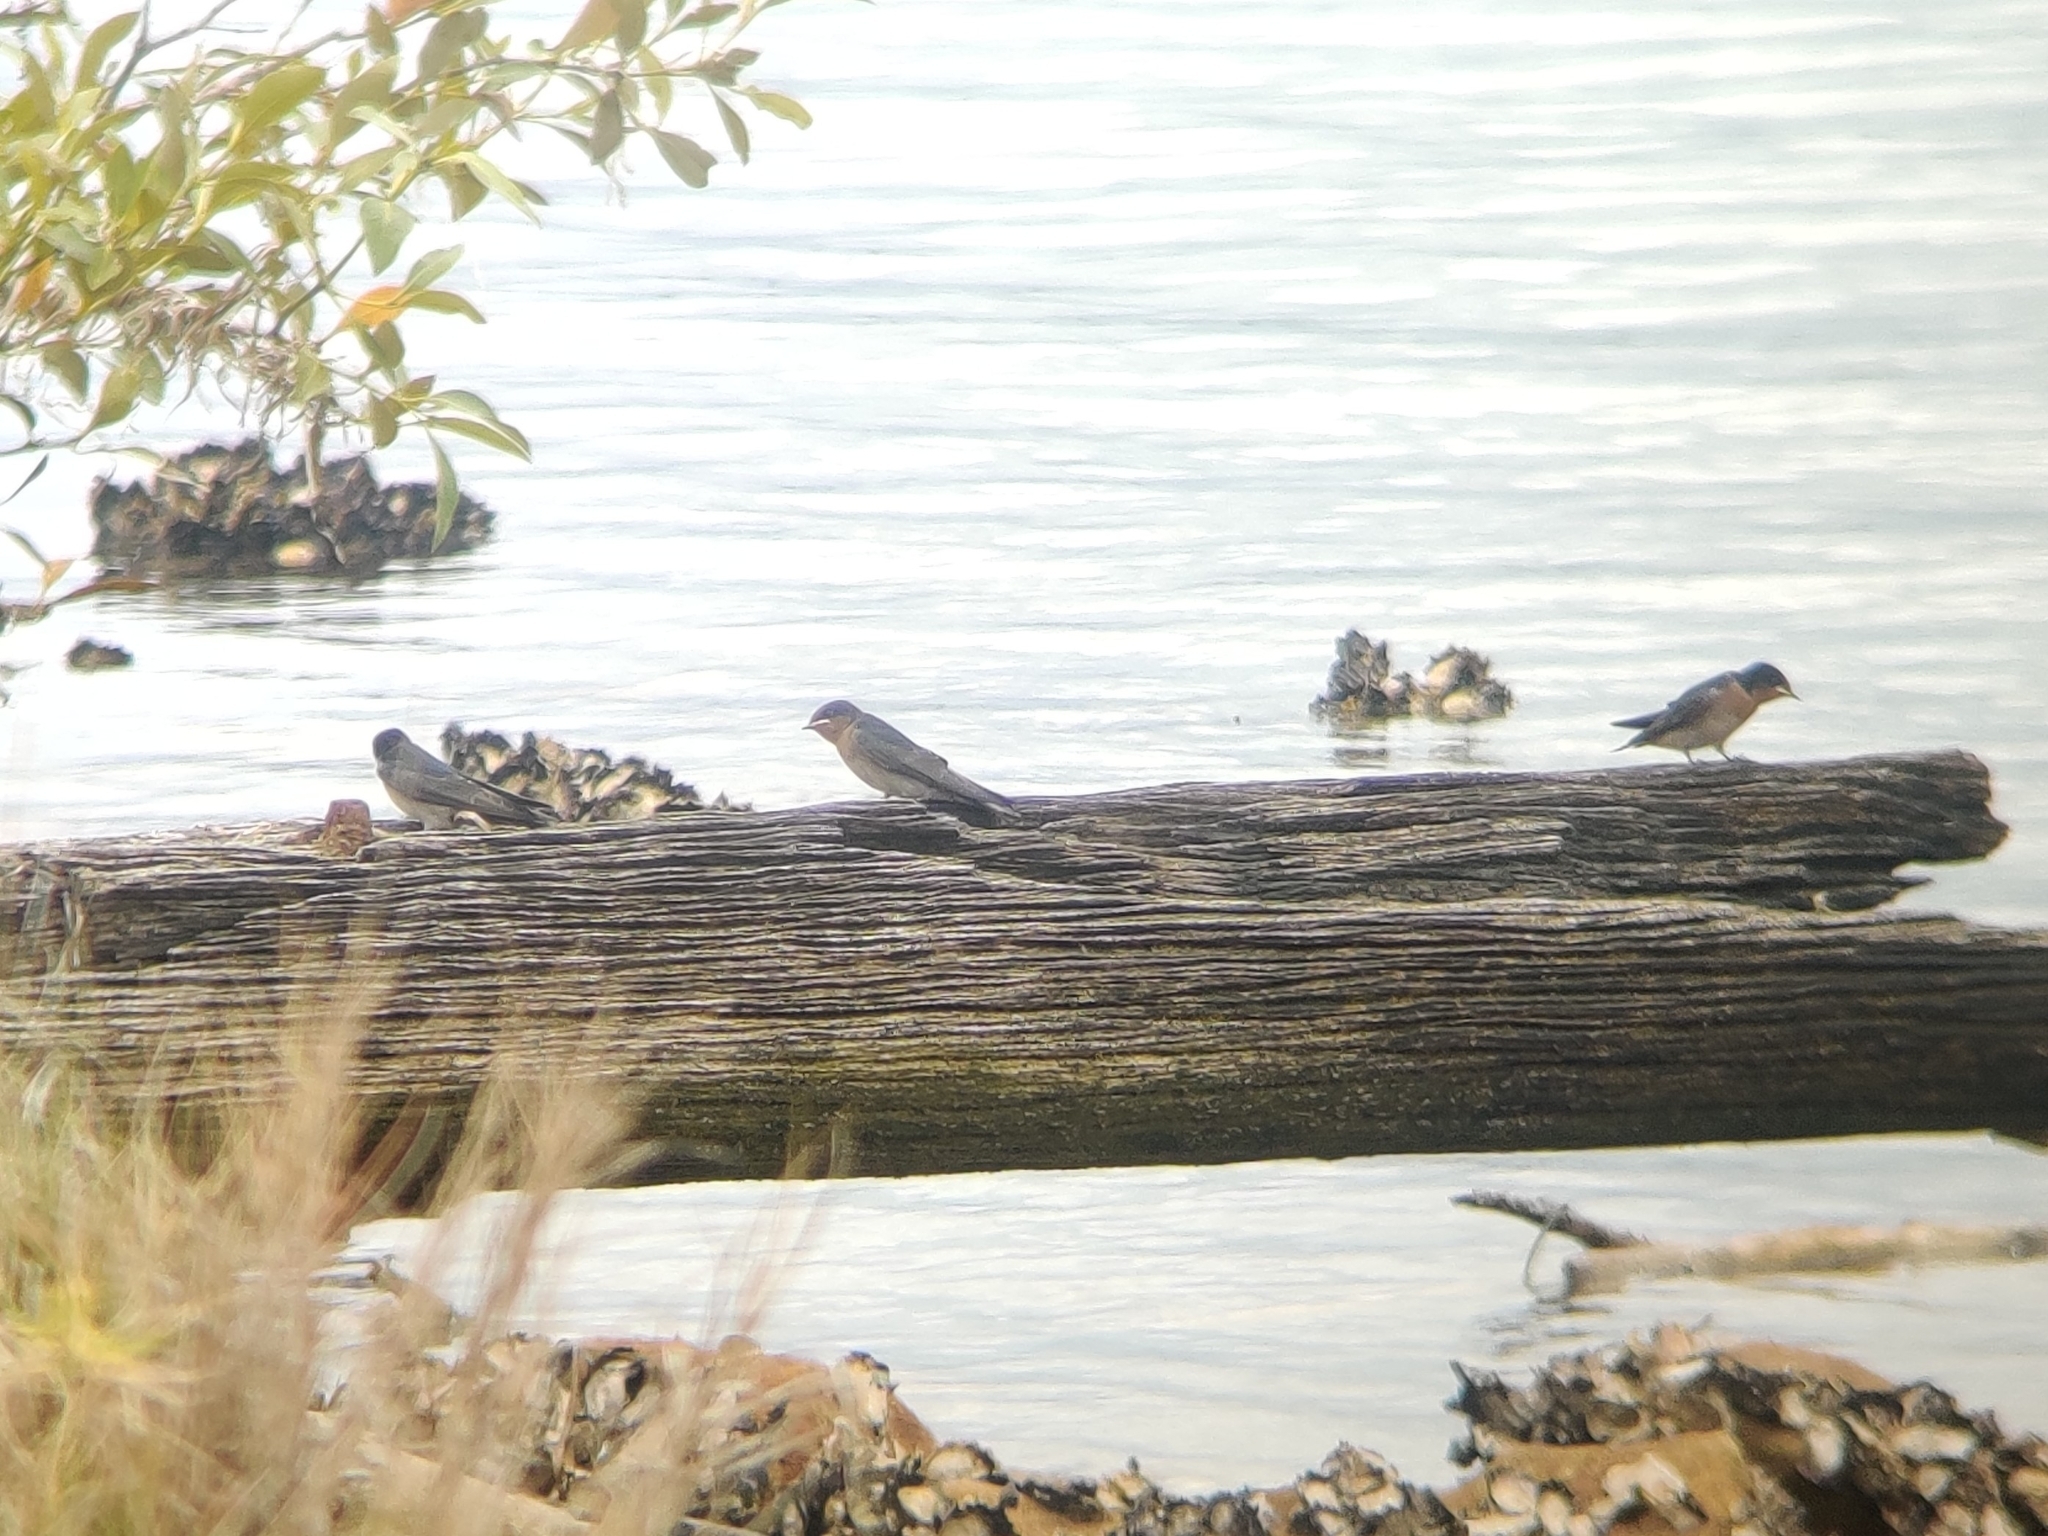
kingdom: Animalia
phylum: Chordata
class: Aves
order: Passeriformes
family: Hirundinidae
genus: Hirundo
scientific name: Hirundo neoxena
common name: Welcome swallow
